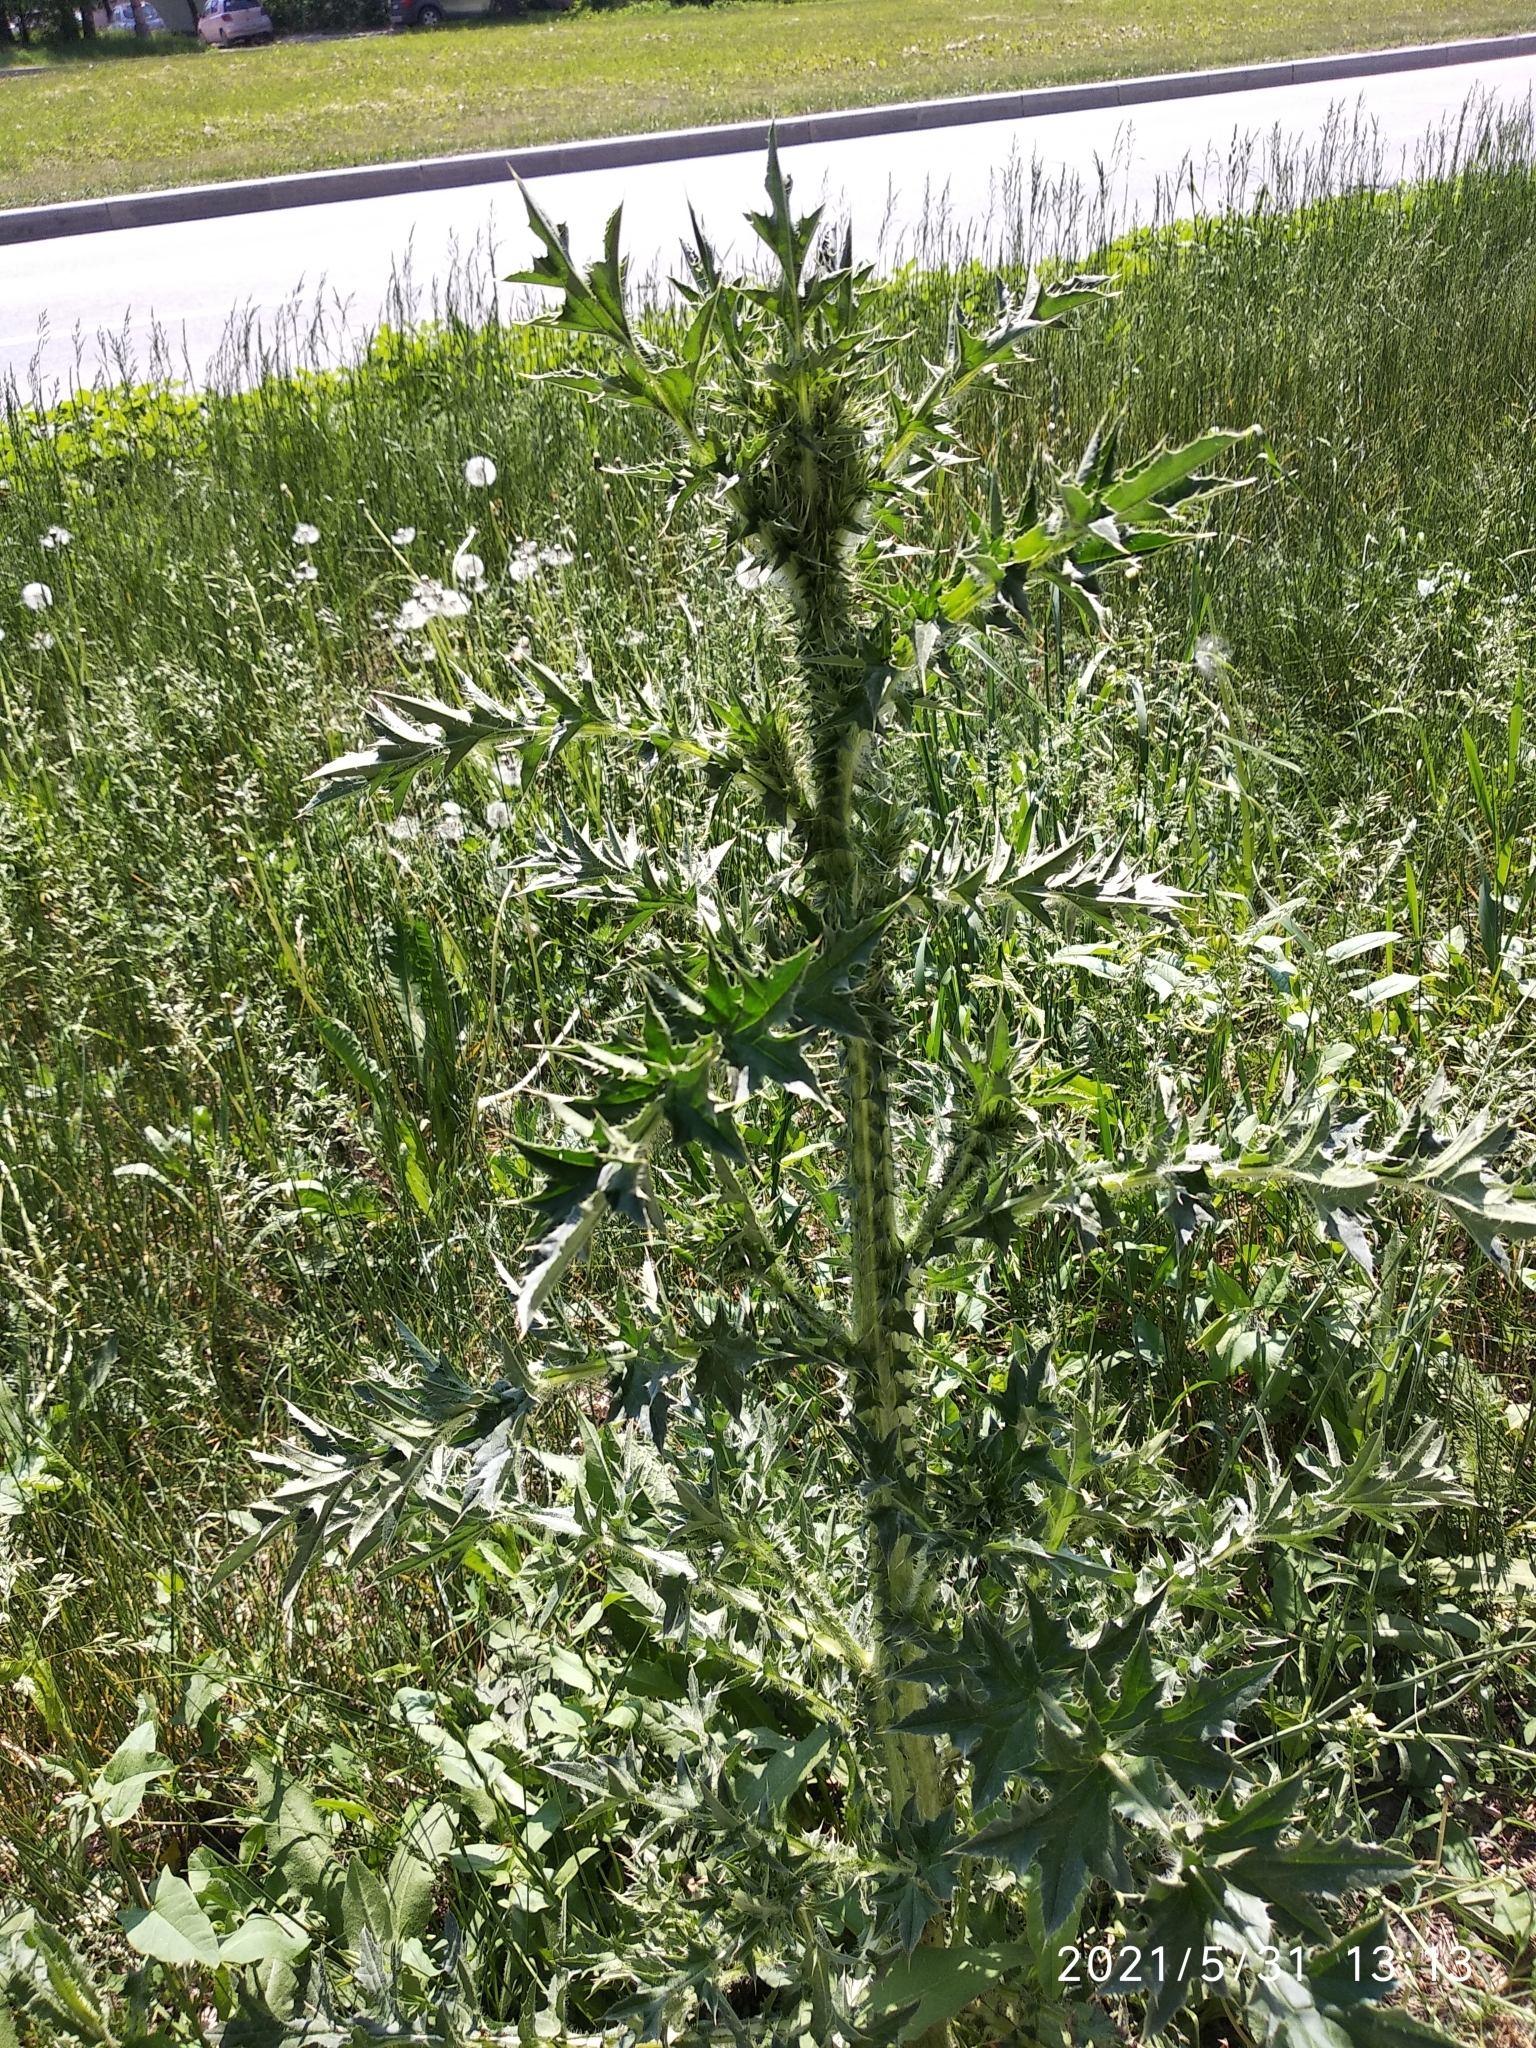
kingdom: Plantae
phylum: Tracheophyta
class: Magnoliopsida
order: Asterales
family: Asteraceae
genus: Carduus
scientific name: Carduus acanthoides
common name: Plumeless thistle
